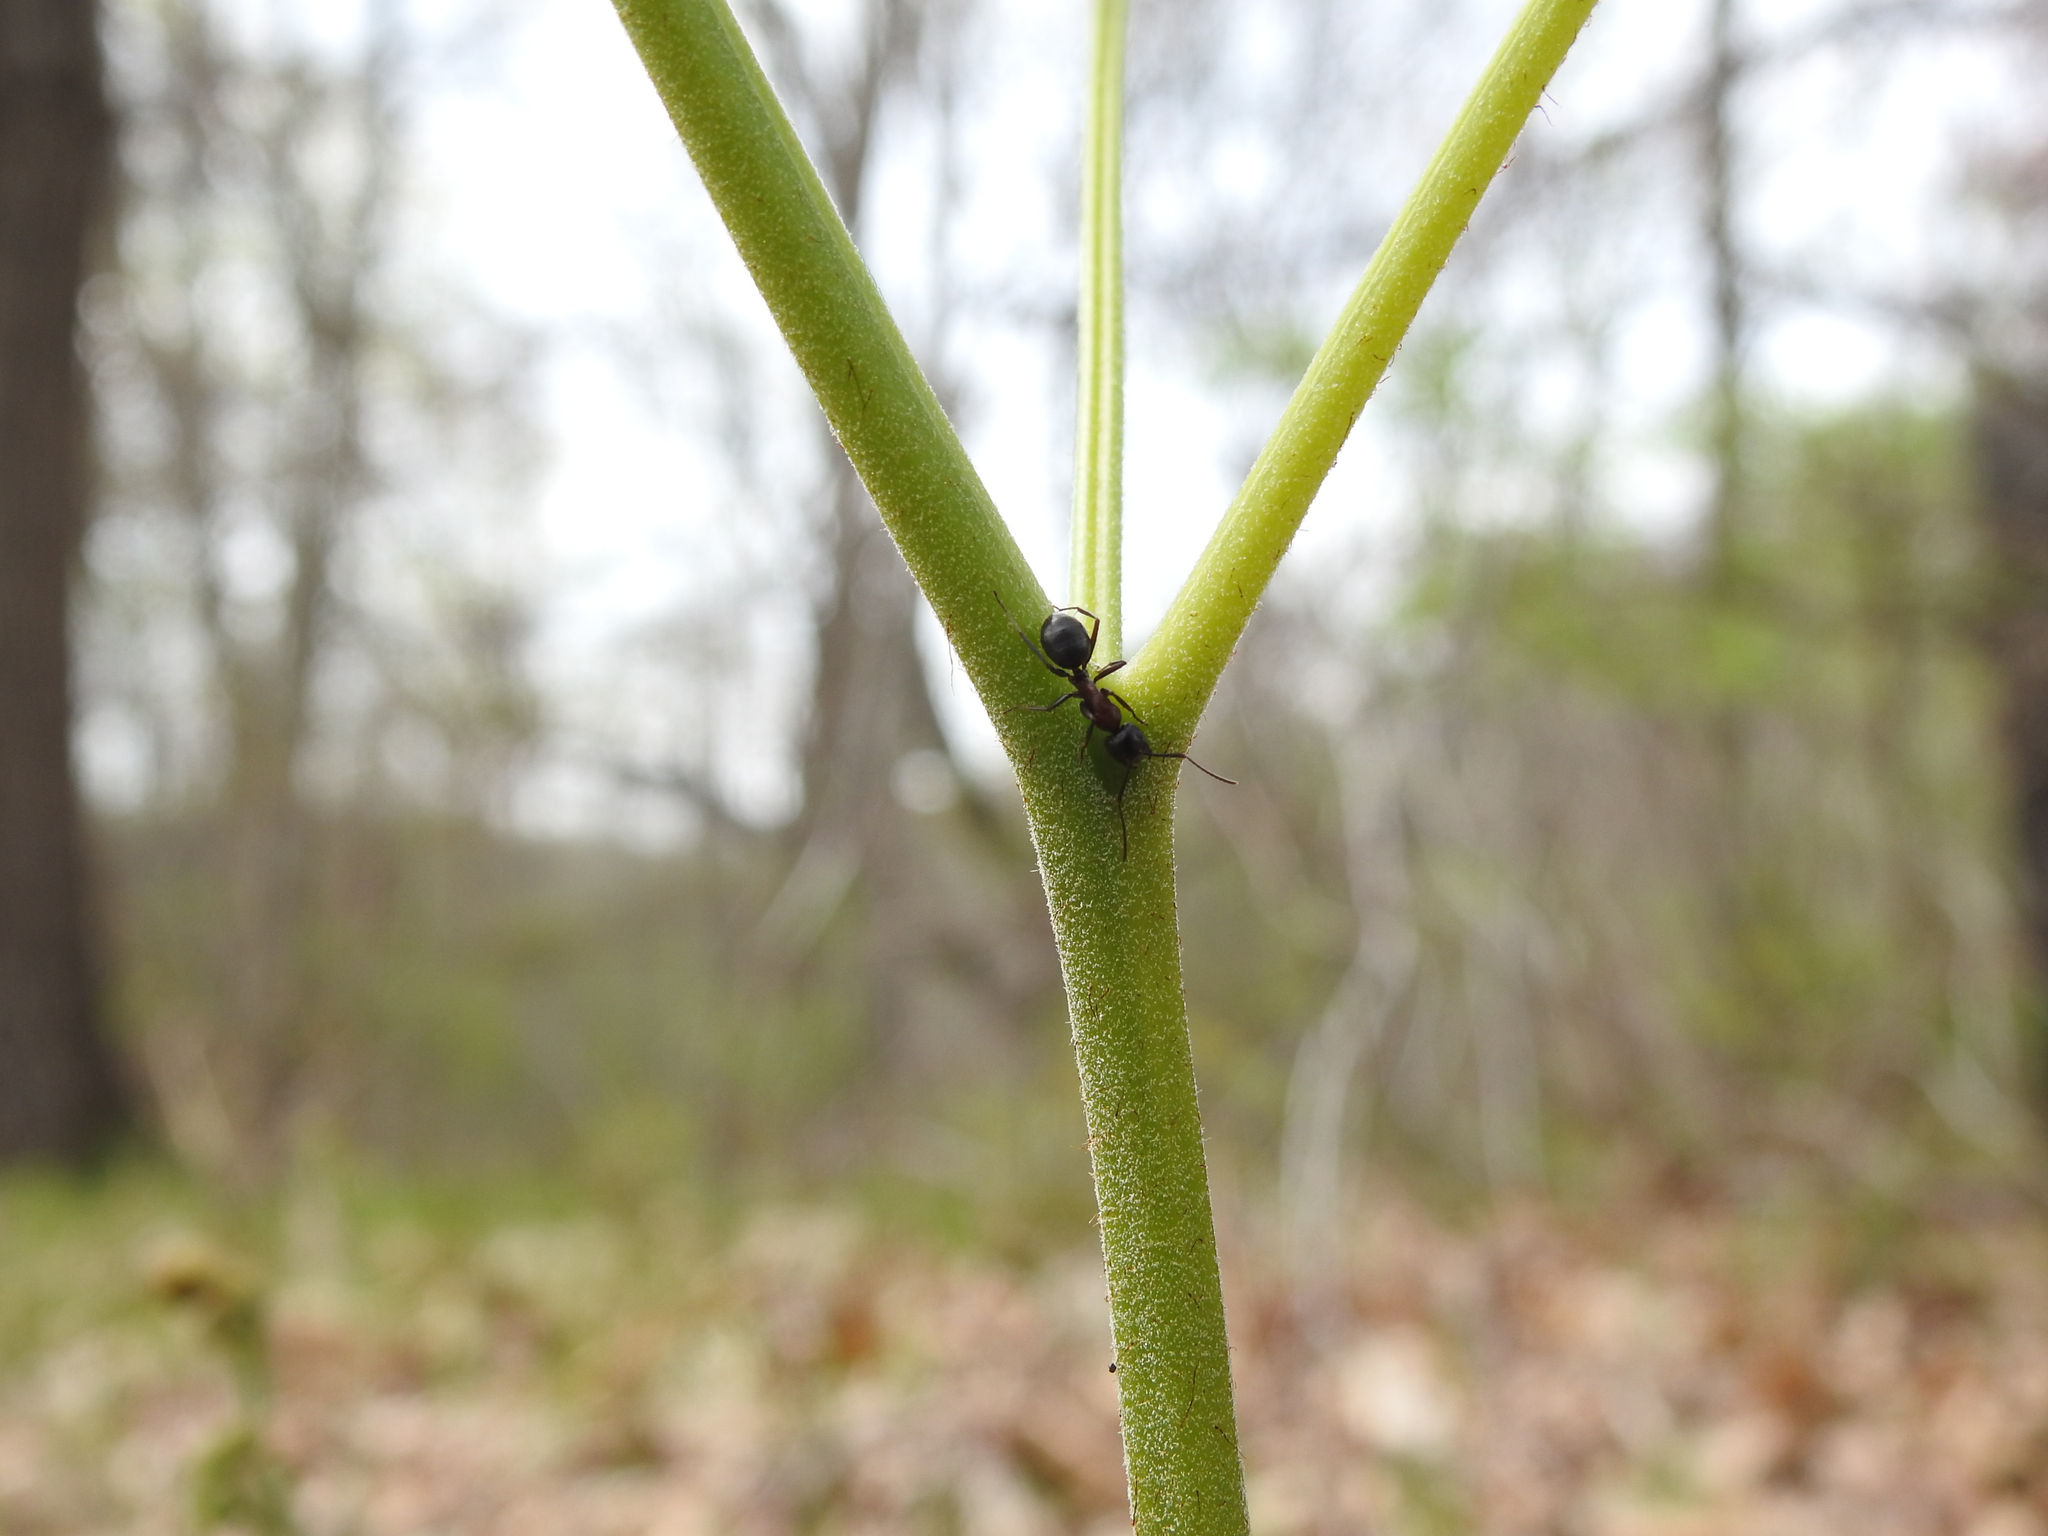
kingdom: Animalia
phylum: Arthropoda
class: Insecta
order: Hymenoptera
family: Formicidae
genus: Camponotus
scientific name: Camponotus novaeboracensis
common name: New york carpenter ant
